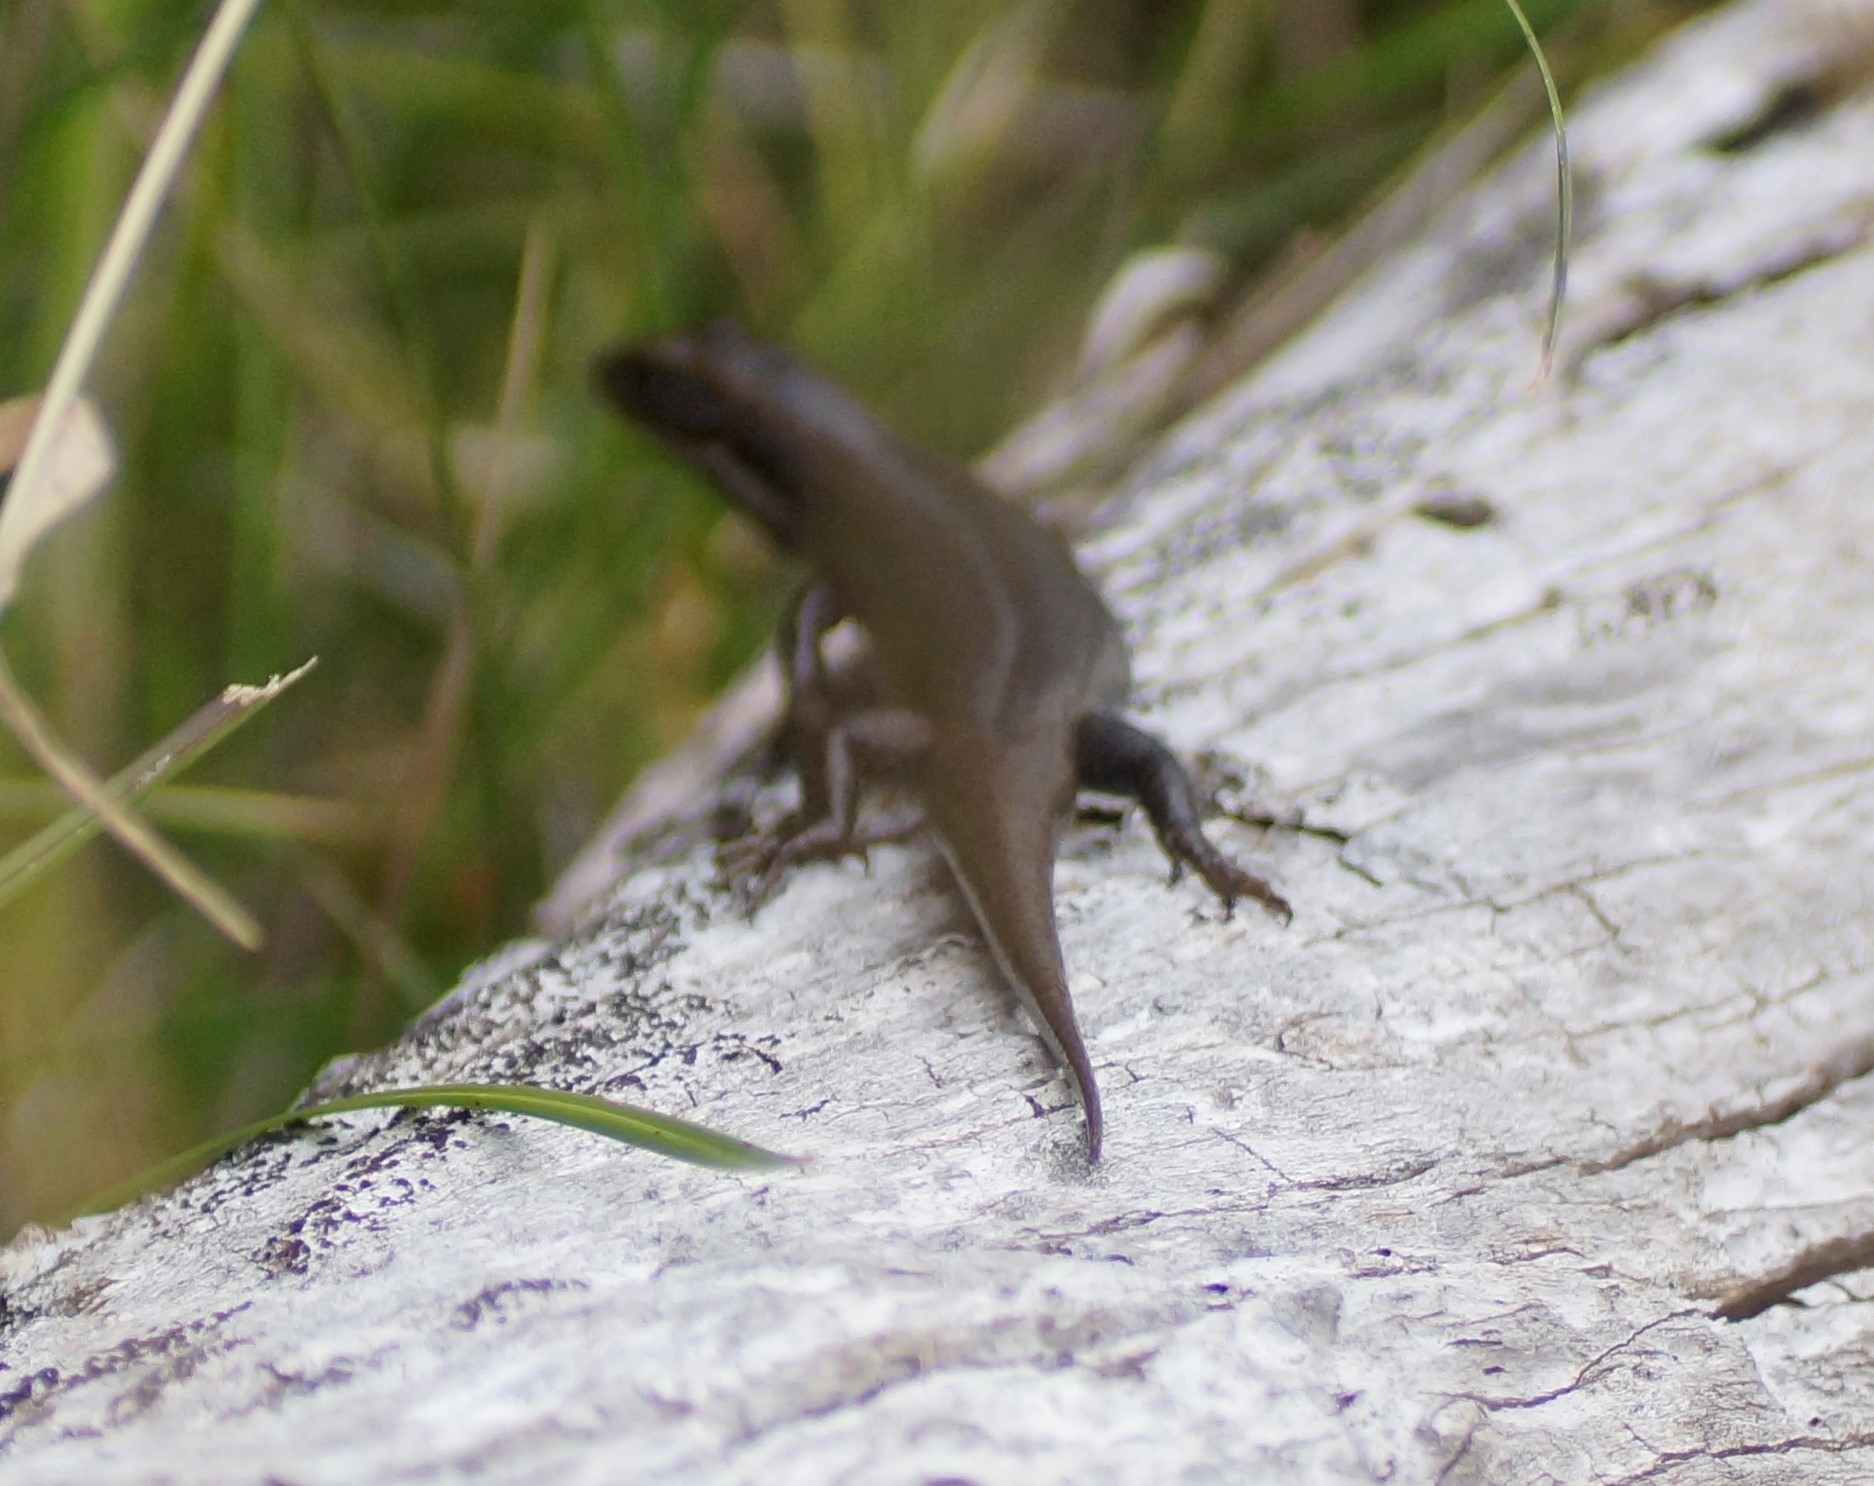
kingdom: Animalia
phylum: Chordata
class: Squamata
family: Scincidae
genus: Eulamprus
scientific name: Eulamprus tympanum
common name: Cool-temperate water-skink
